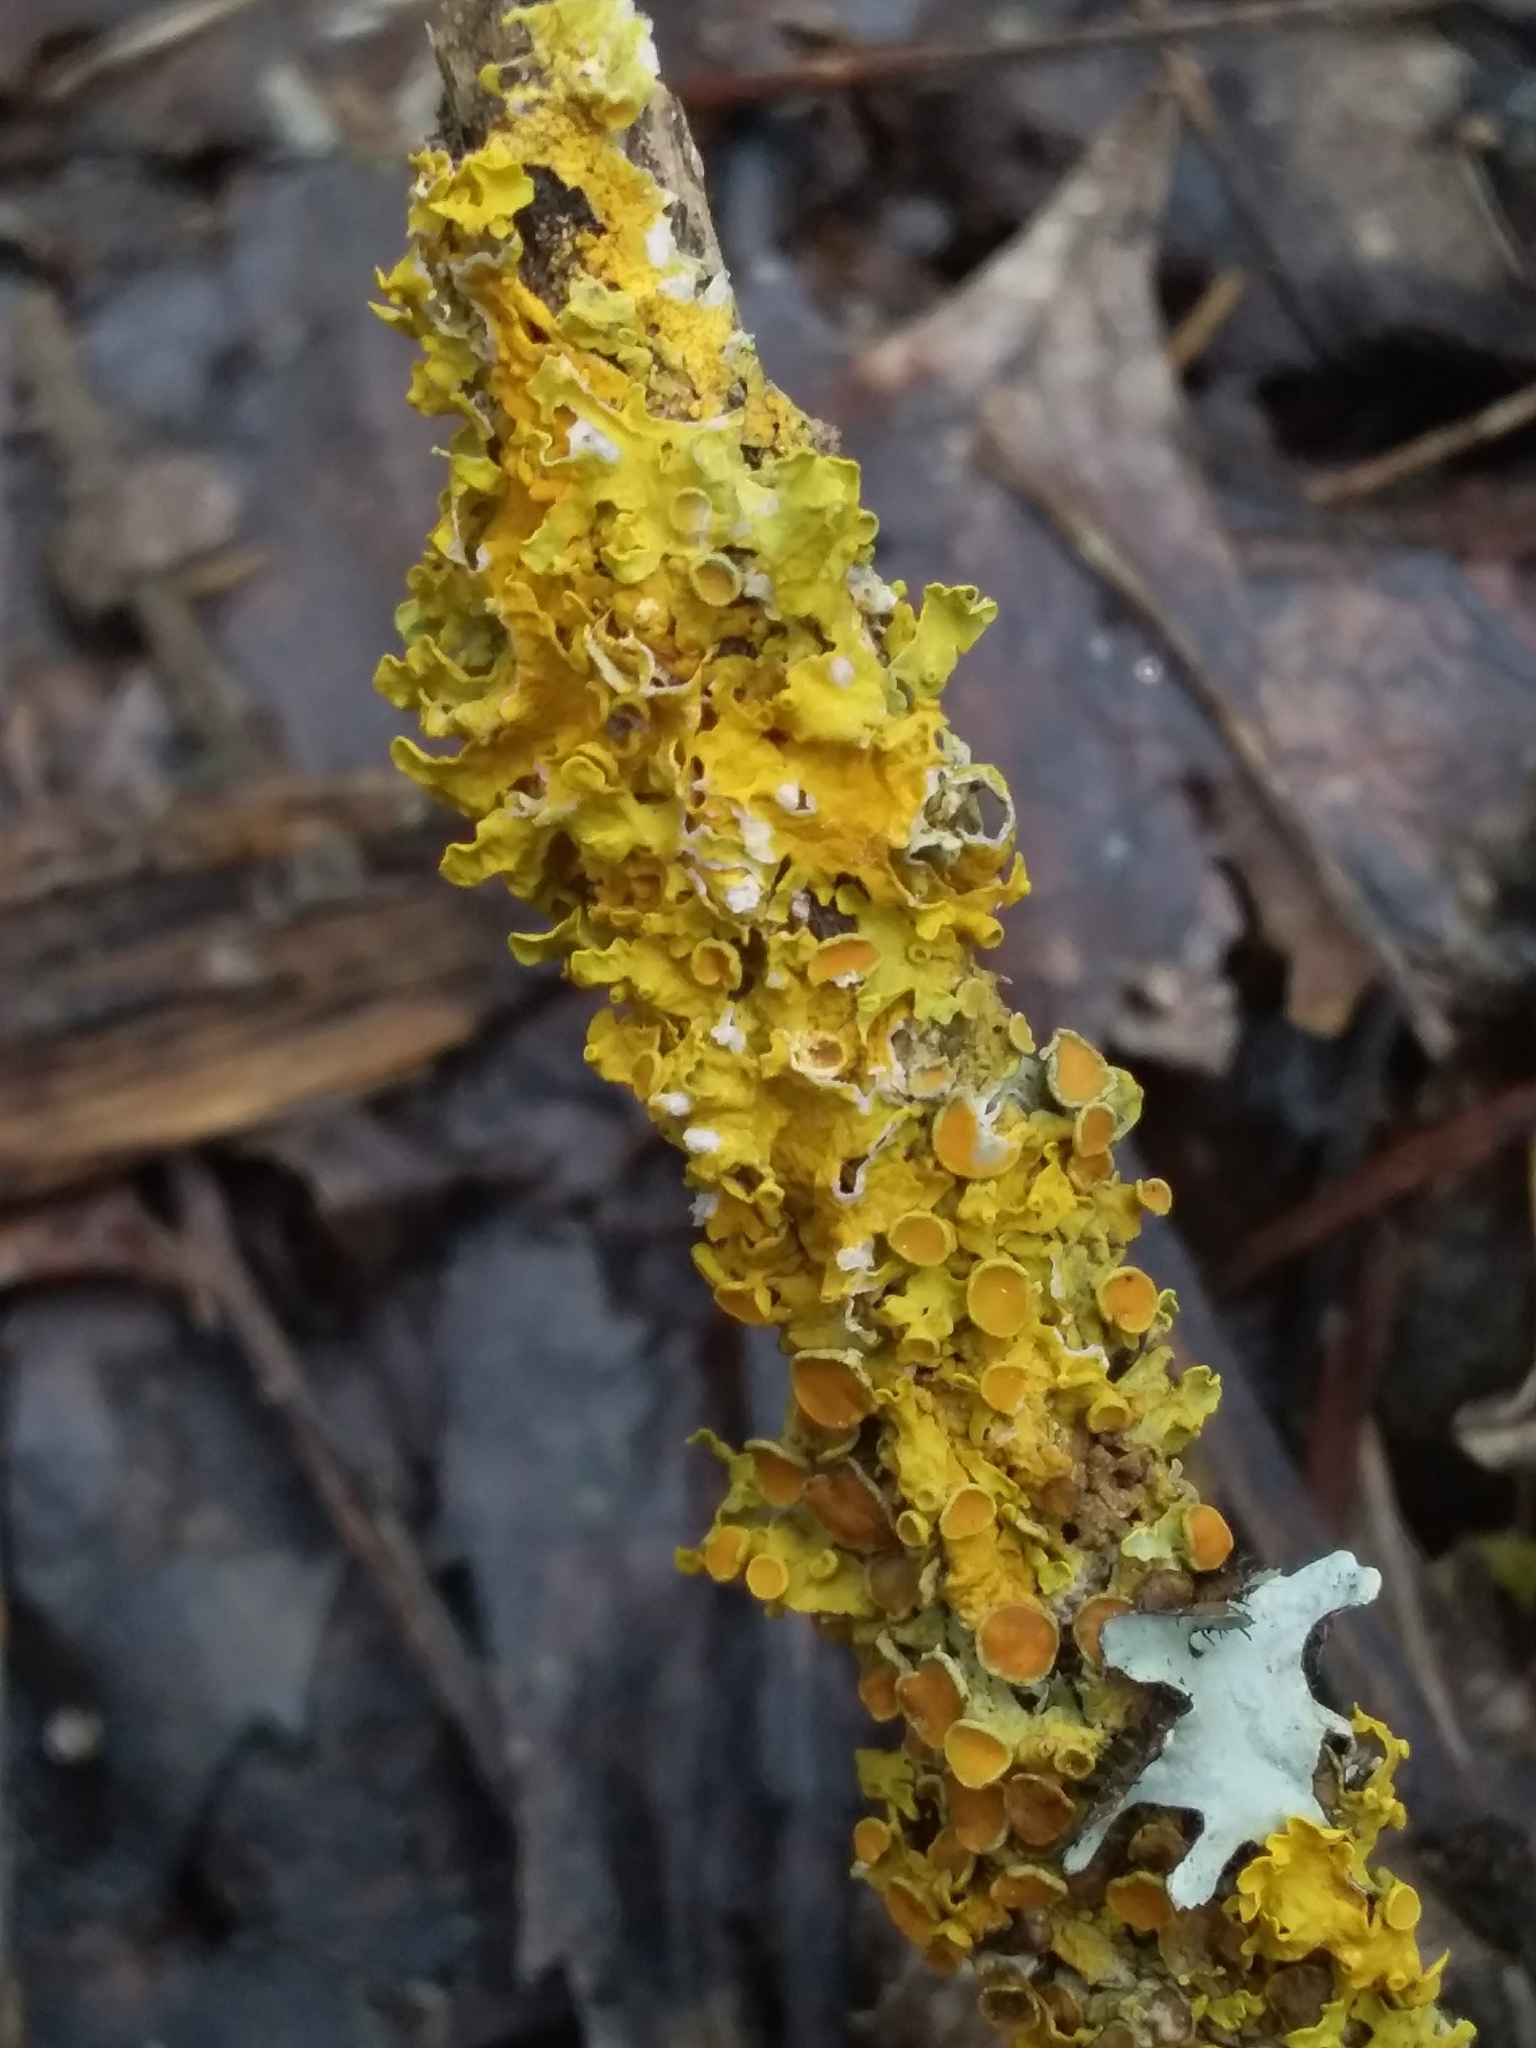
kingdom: Fungi
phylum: Ascomycota
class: Lecanoromycetes
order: Teloschistales
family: Teloschistaceae
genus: Xanthoria
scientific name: Xanthoria parietina
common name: Common orange lichen
